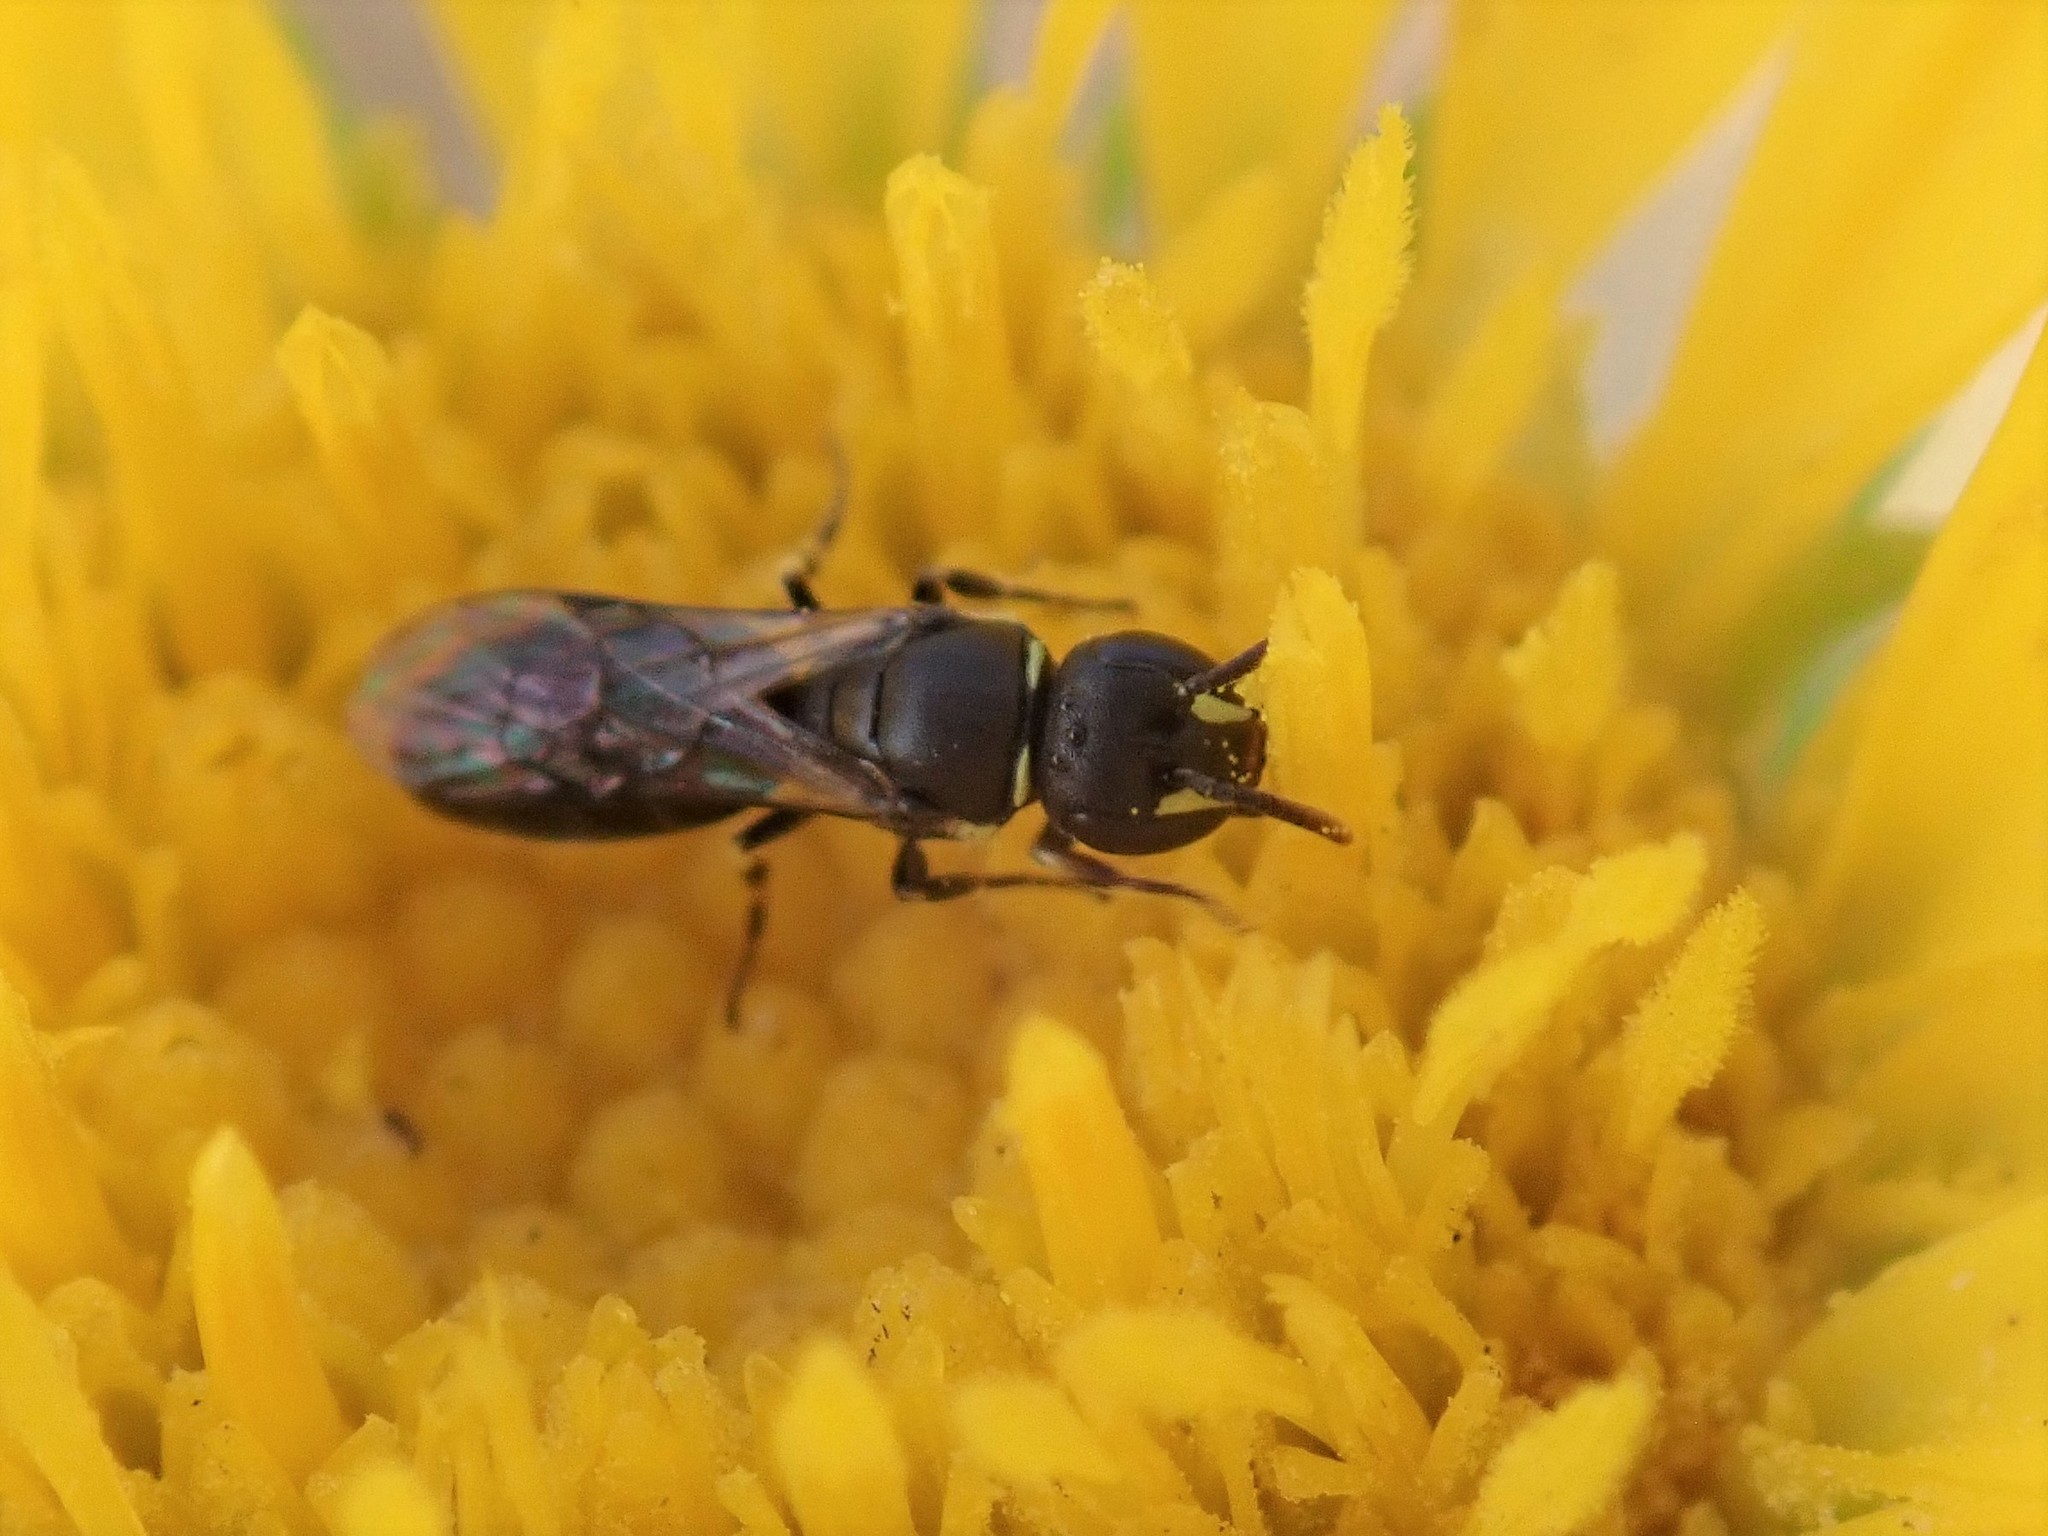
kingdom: Animalia
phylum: Arthropoda
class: Insecta
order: Hymenoptera
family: Colletidae
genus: Hylaeus
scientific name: Hylaeus
